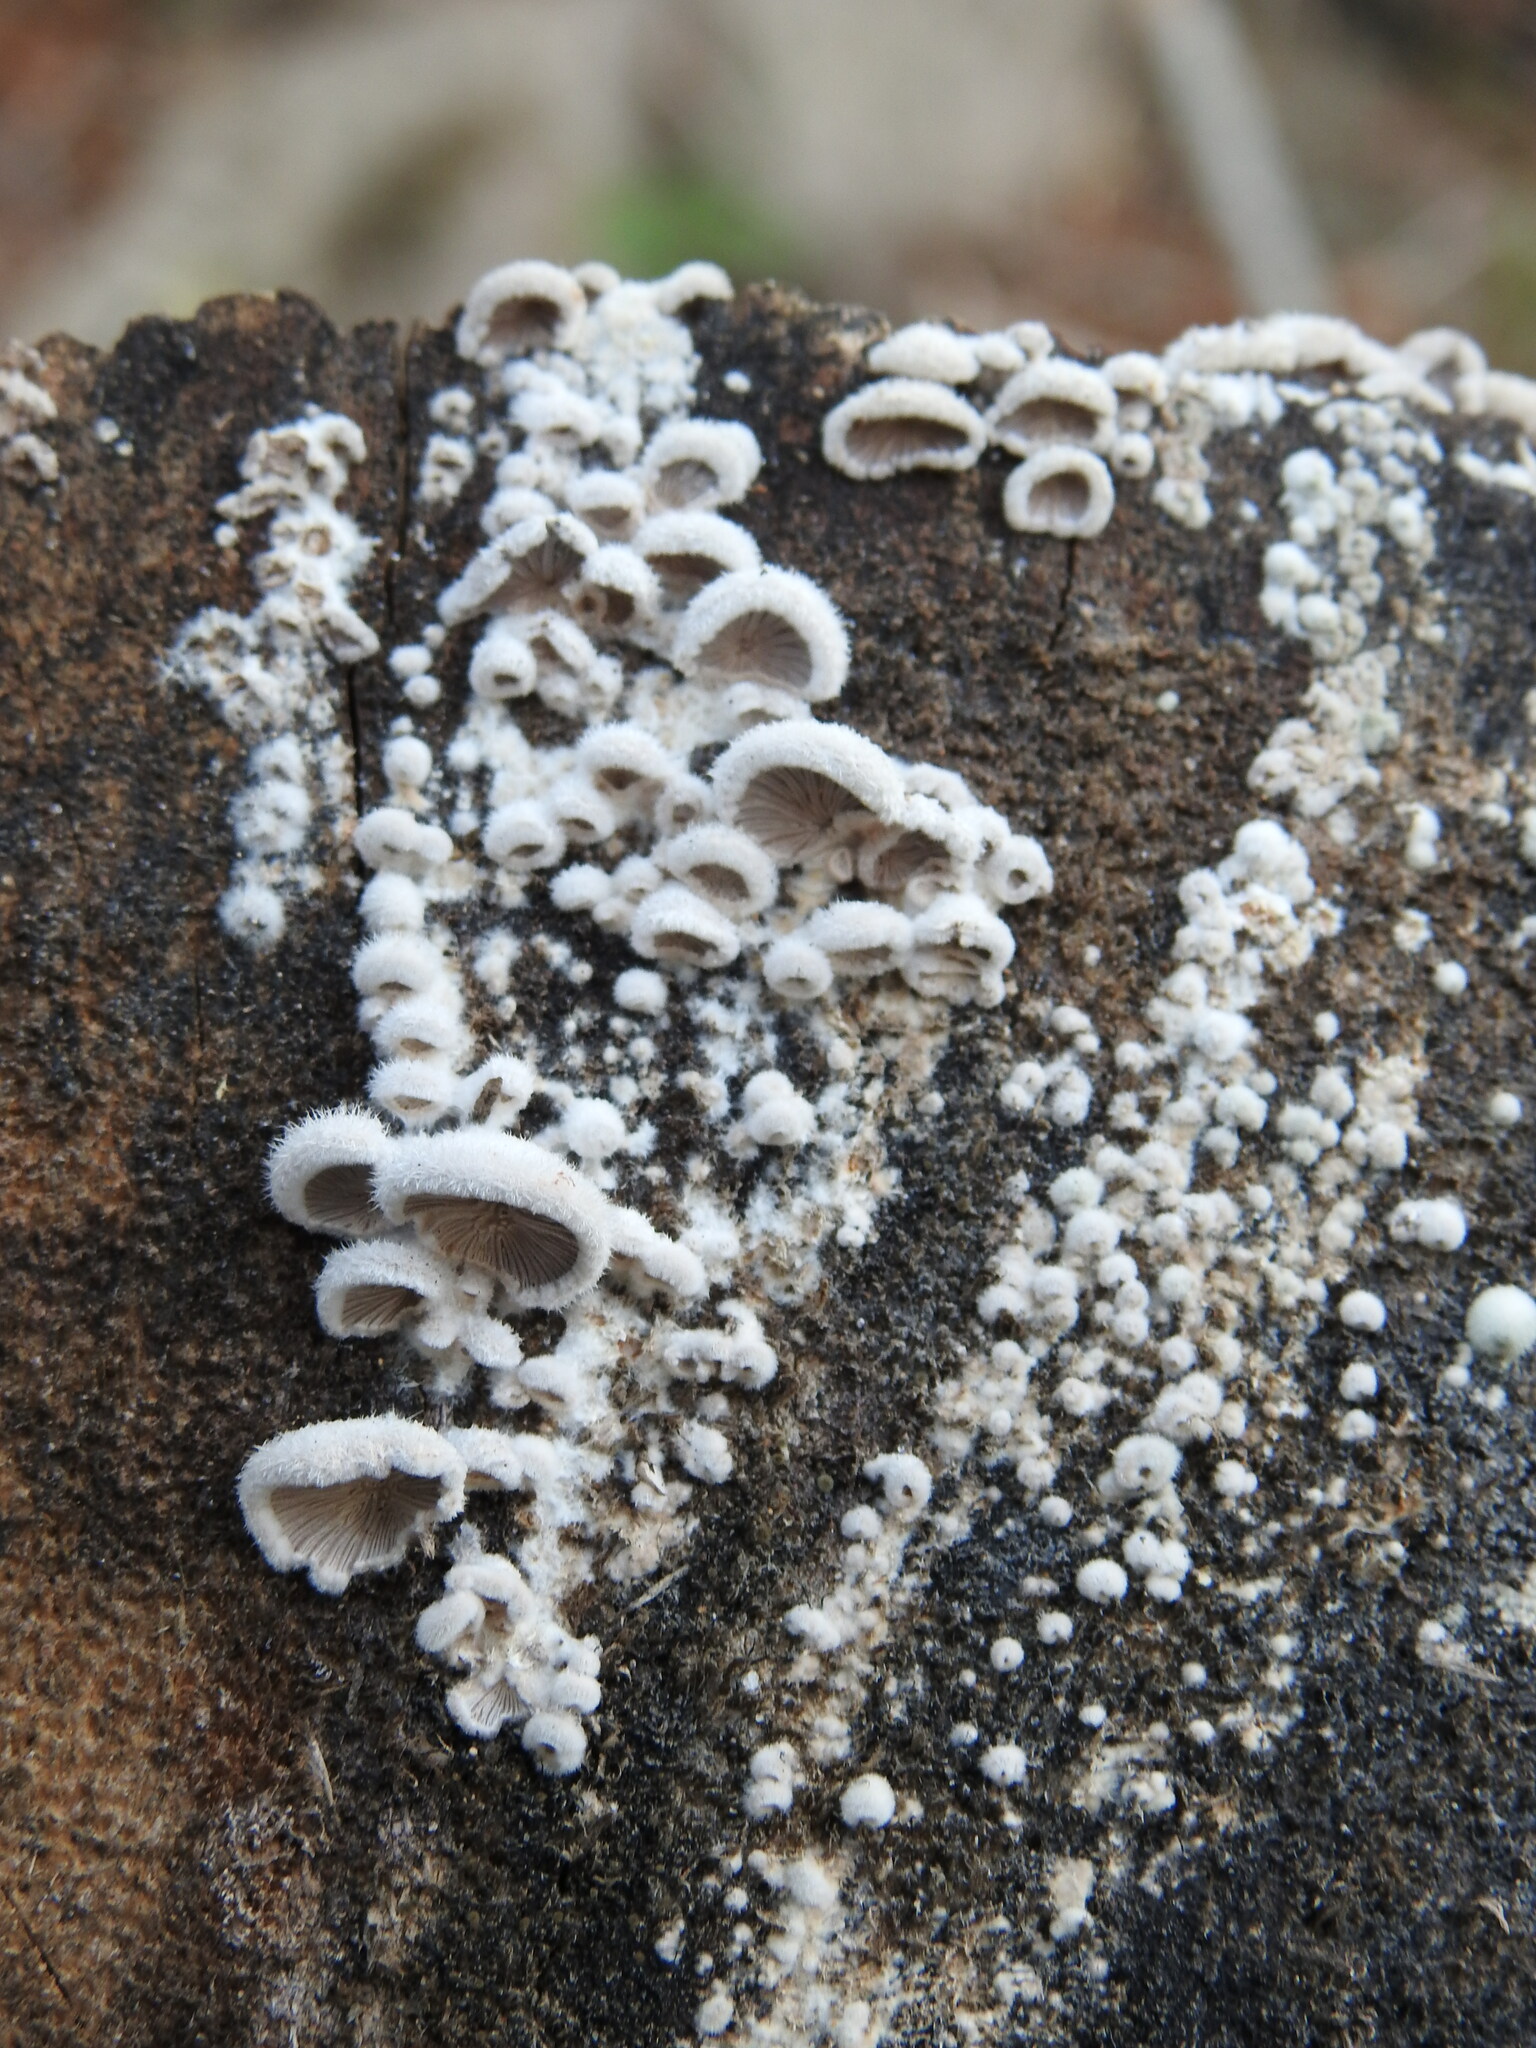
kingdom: Fungi
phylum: Basidiomycota
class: Agaricomycetes
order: Agaricales
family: Schizophyllaceae
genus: Schizophyllum
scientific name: Schizophyllum commune
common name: Common porecrust
